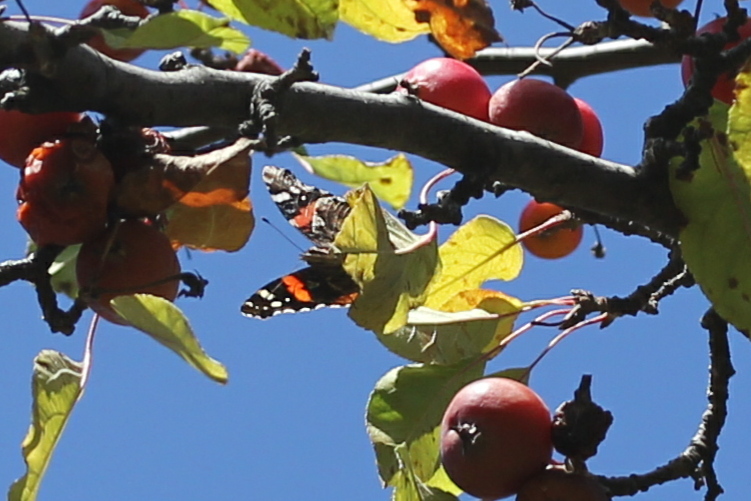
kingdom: Animalia
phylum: Arthropoda
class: Insecta
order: Lepidoptera
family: Nymphalidae
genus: Vanessa
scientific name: Vanessa atalanta
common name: Red admiral
